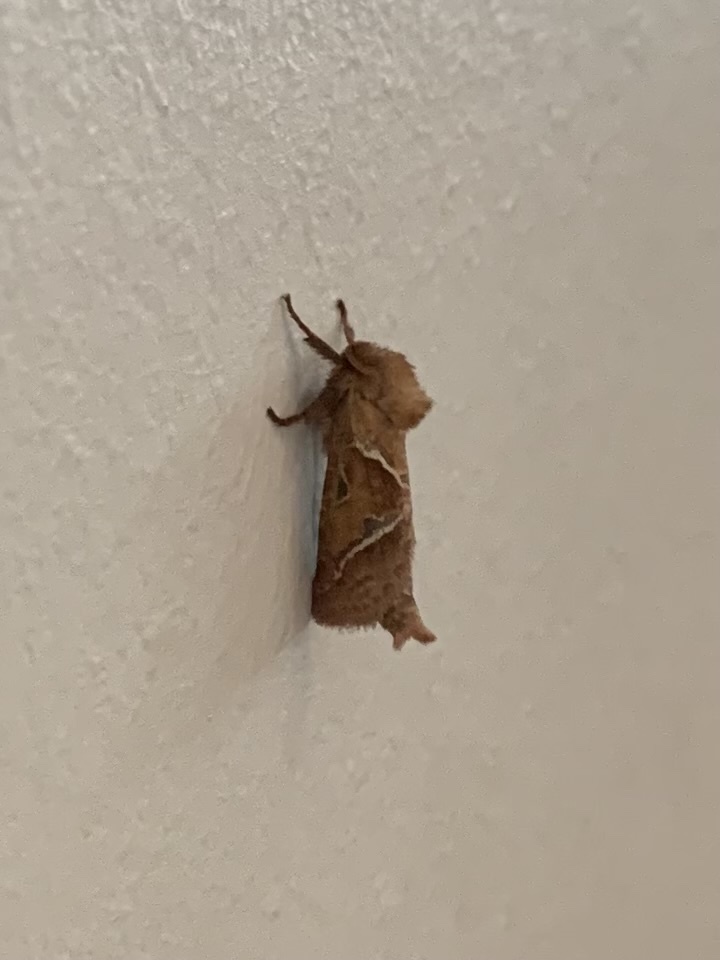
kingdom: Animalia
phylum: Arthropoda
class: Insecta
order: Lepidoptera
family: Hepialidae
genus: Triodia
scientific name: Triodia sylvina
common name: Orange swift
